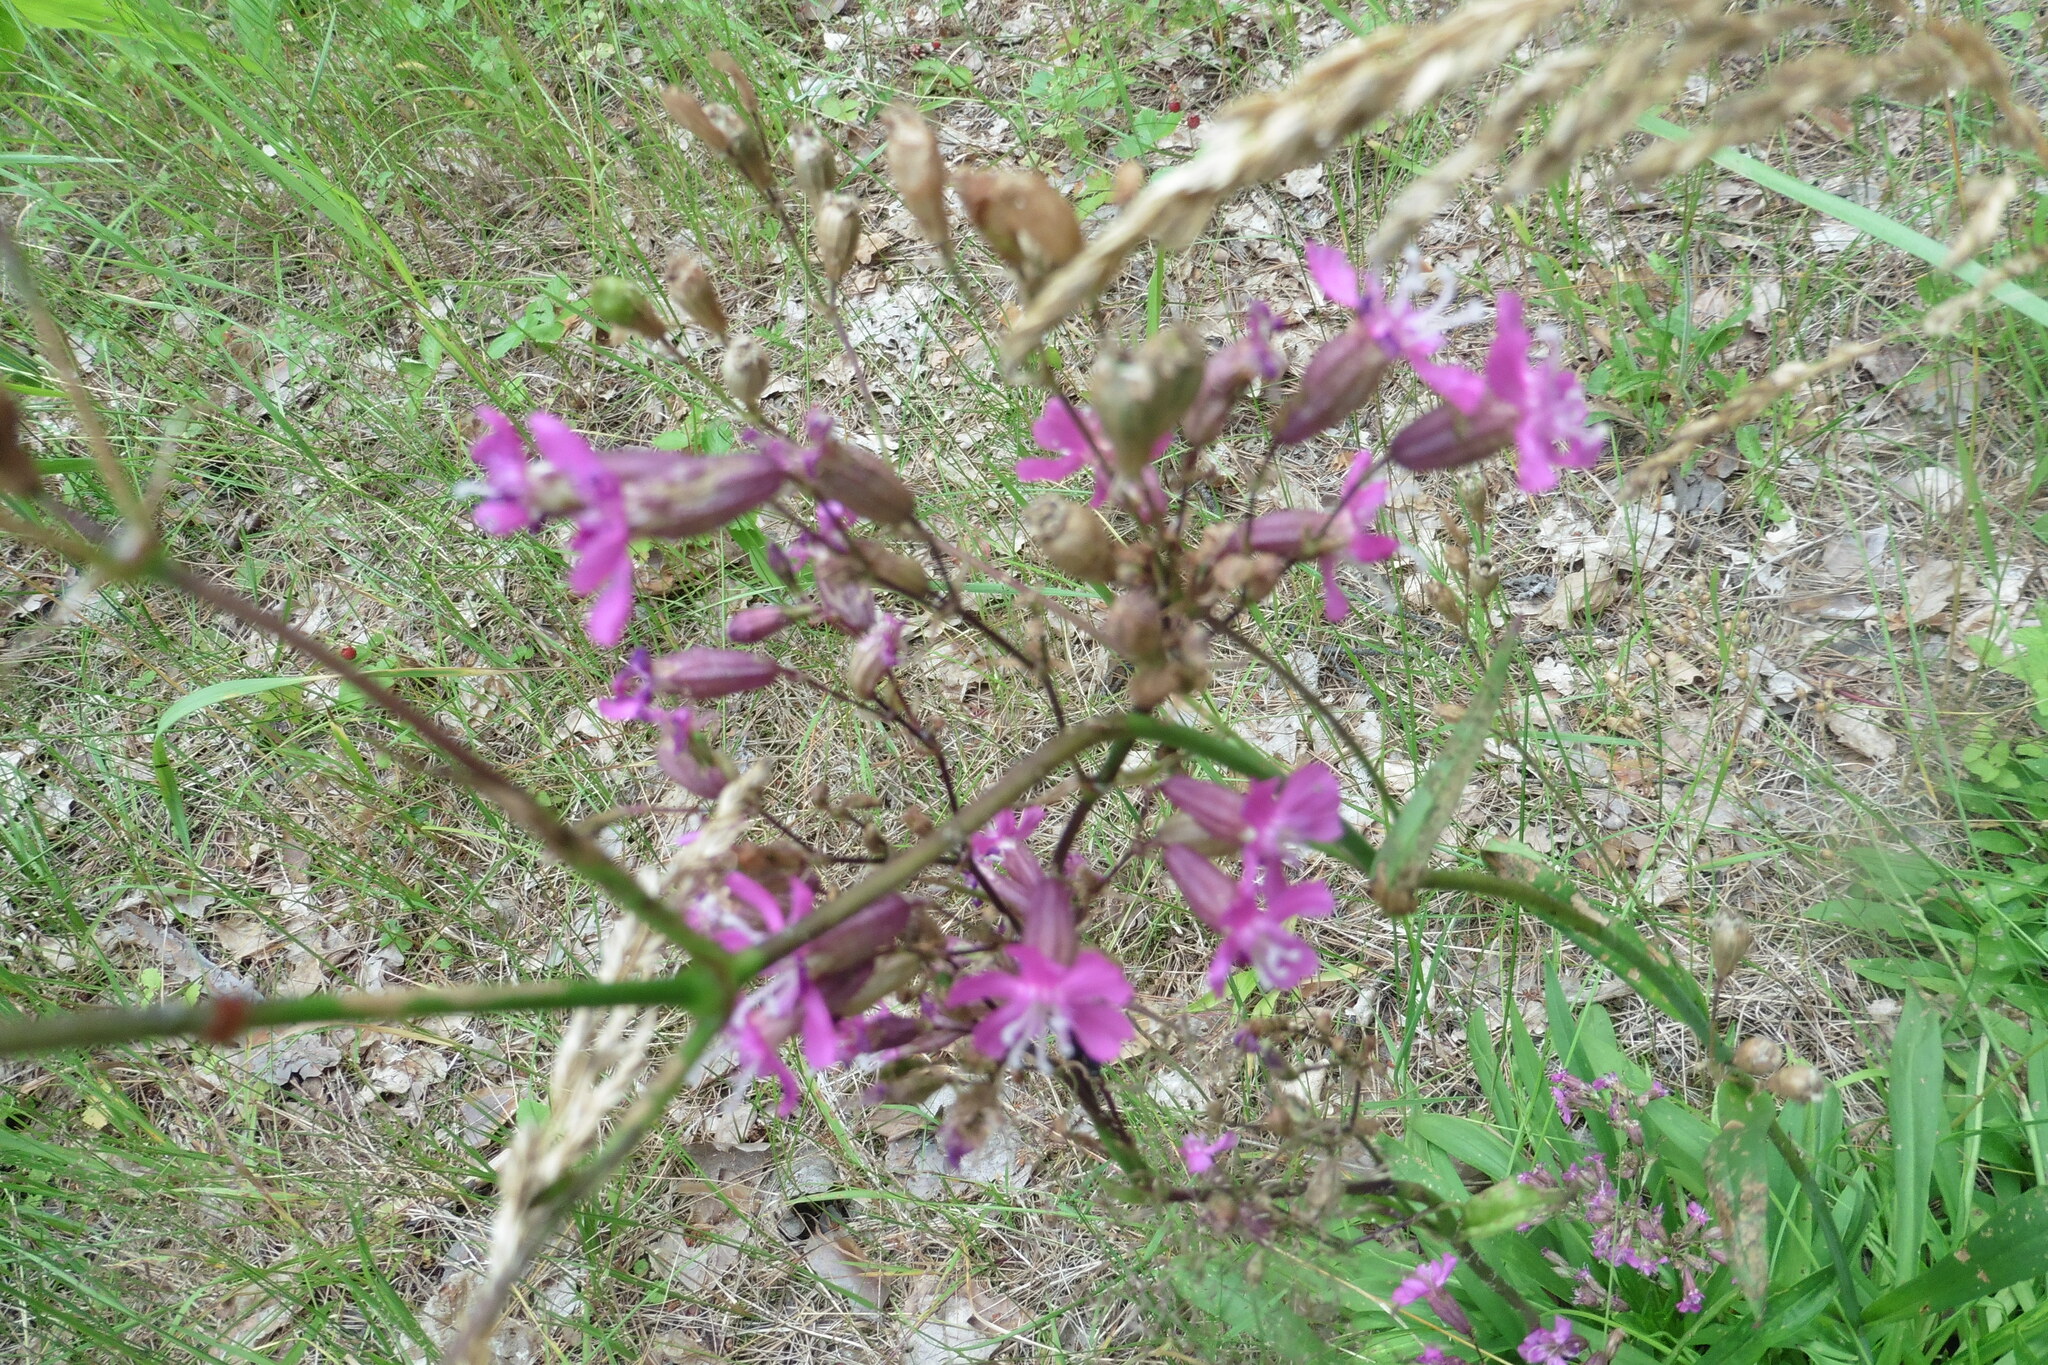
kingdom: Plantae
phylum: Tracheophyta
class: Magnoliopsida
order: Caryophyllales
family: Caryophyllaceae
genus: Viscaria
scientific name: Viscaria vulgaris
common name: Clammy campion
